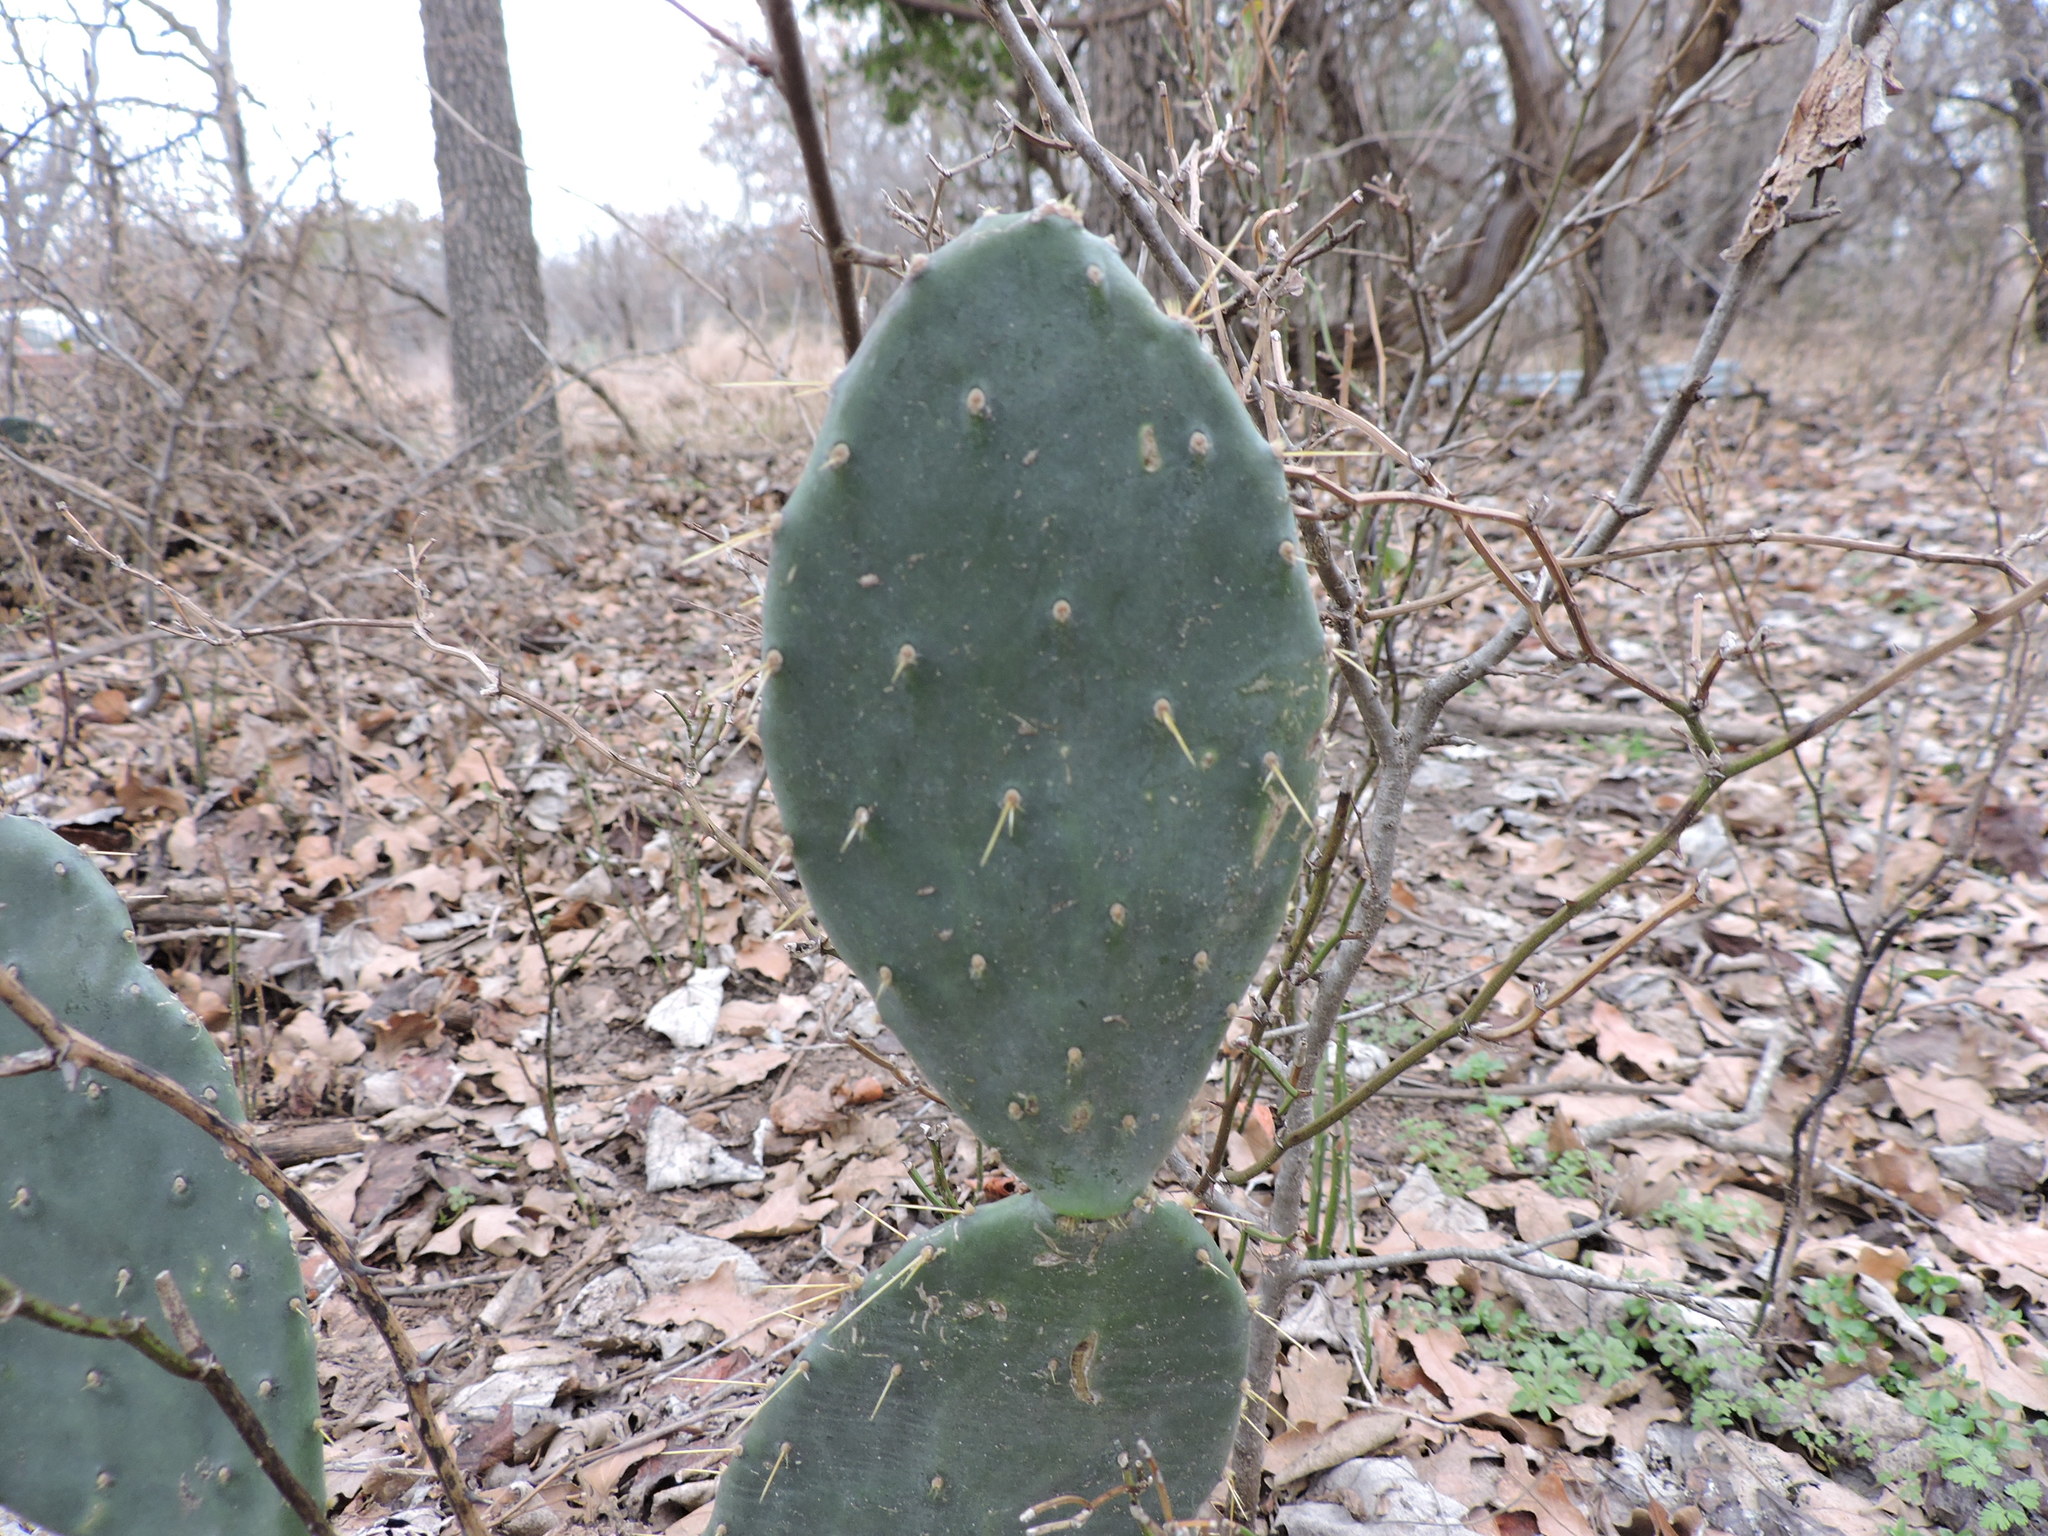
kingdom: Plantae
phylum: Tracheophyta
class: Magnoliopsida
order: Caryophyllales
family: Cactaceae
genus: Opuntia
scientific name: Opuntia engelmannii
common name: Cactus-apple
